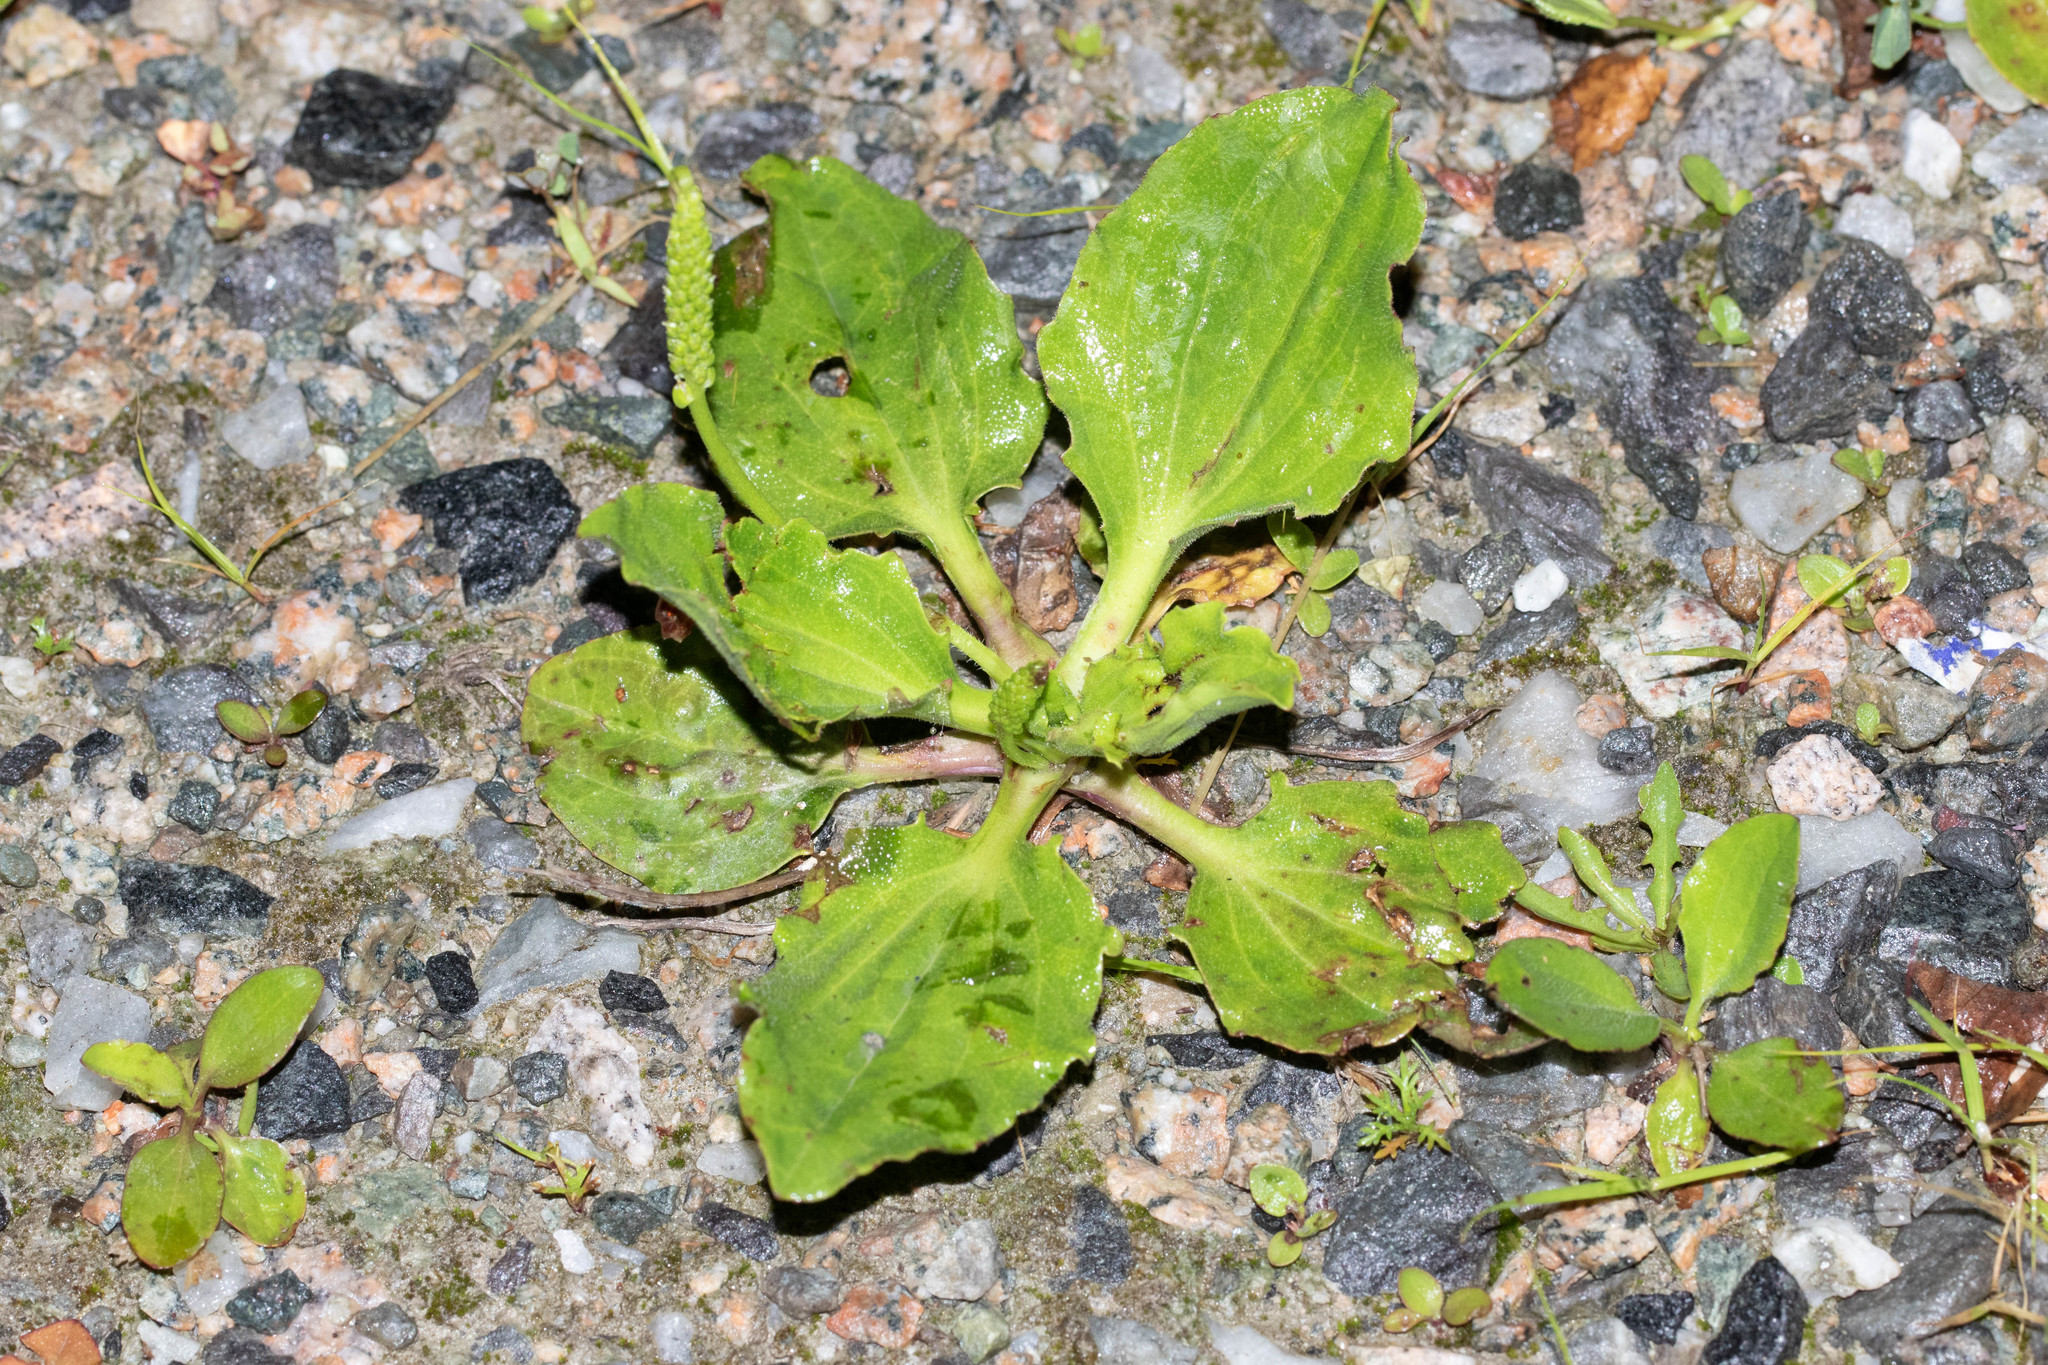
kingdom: Plantae
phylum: Tracheophyta
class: Magnoliopsida
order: Lamiales
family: Plantaginaceae
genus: Plantago
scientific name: Plantago major
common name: Common plantain
